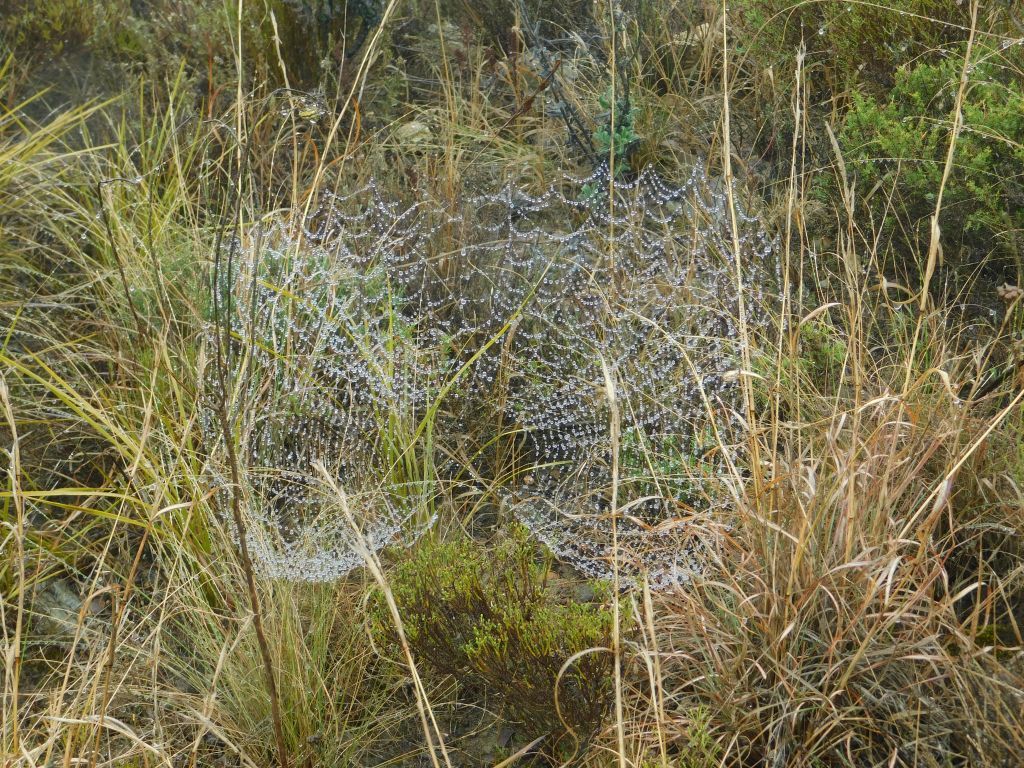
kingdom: Animalia
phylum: Arthropoda
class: Arachnida
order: Araneae
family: Araneidae
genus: Argiope
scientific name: Argiope australis
